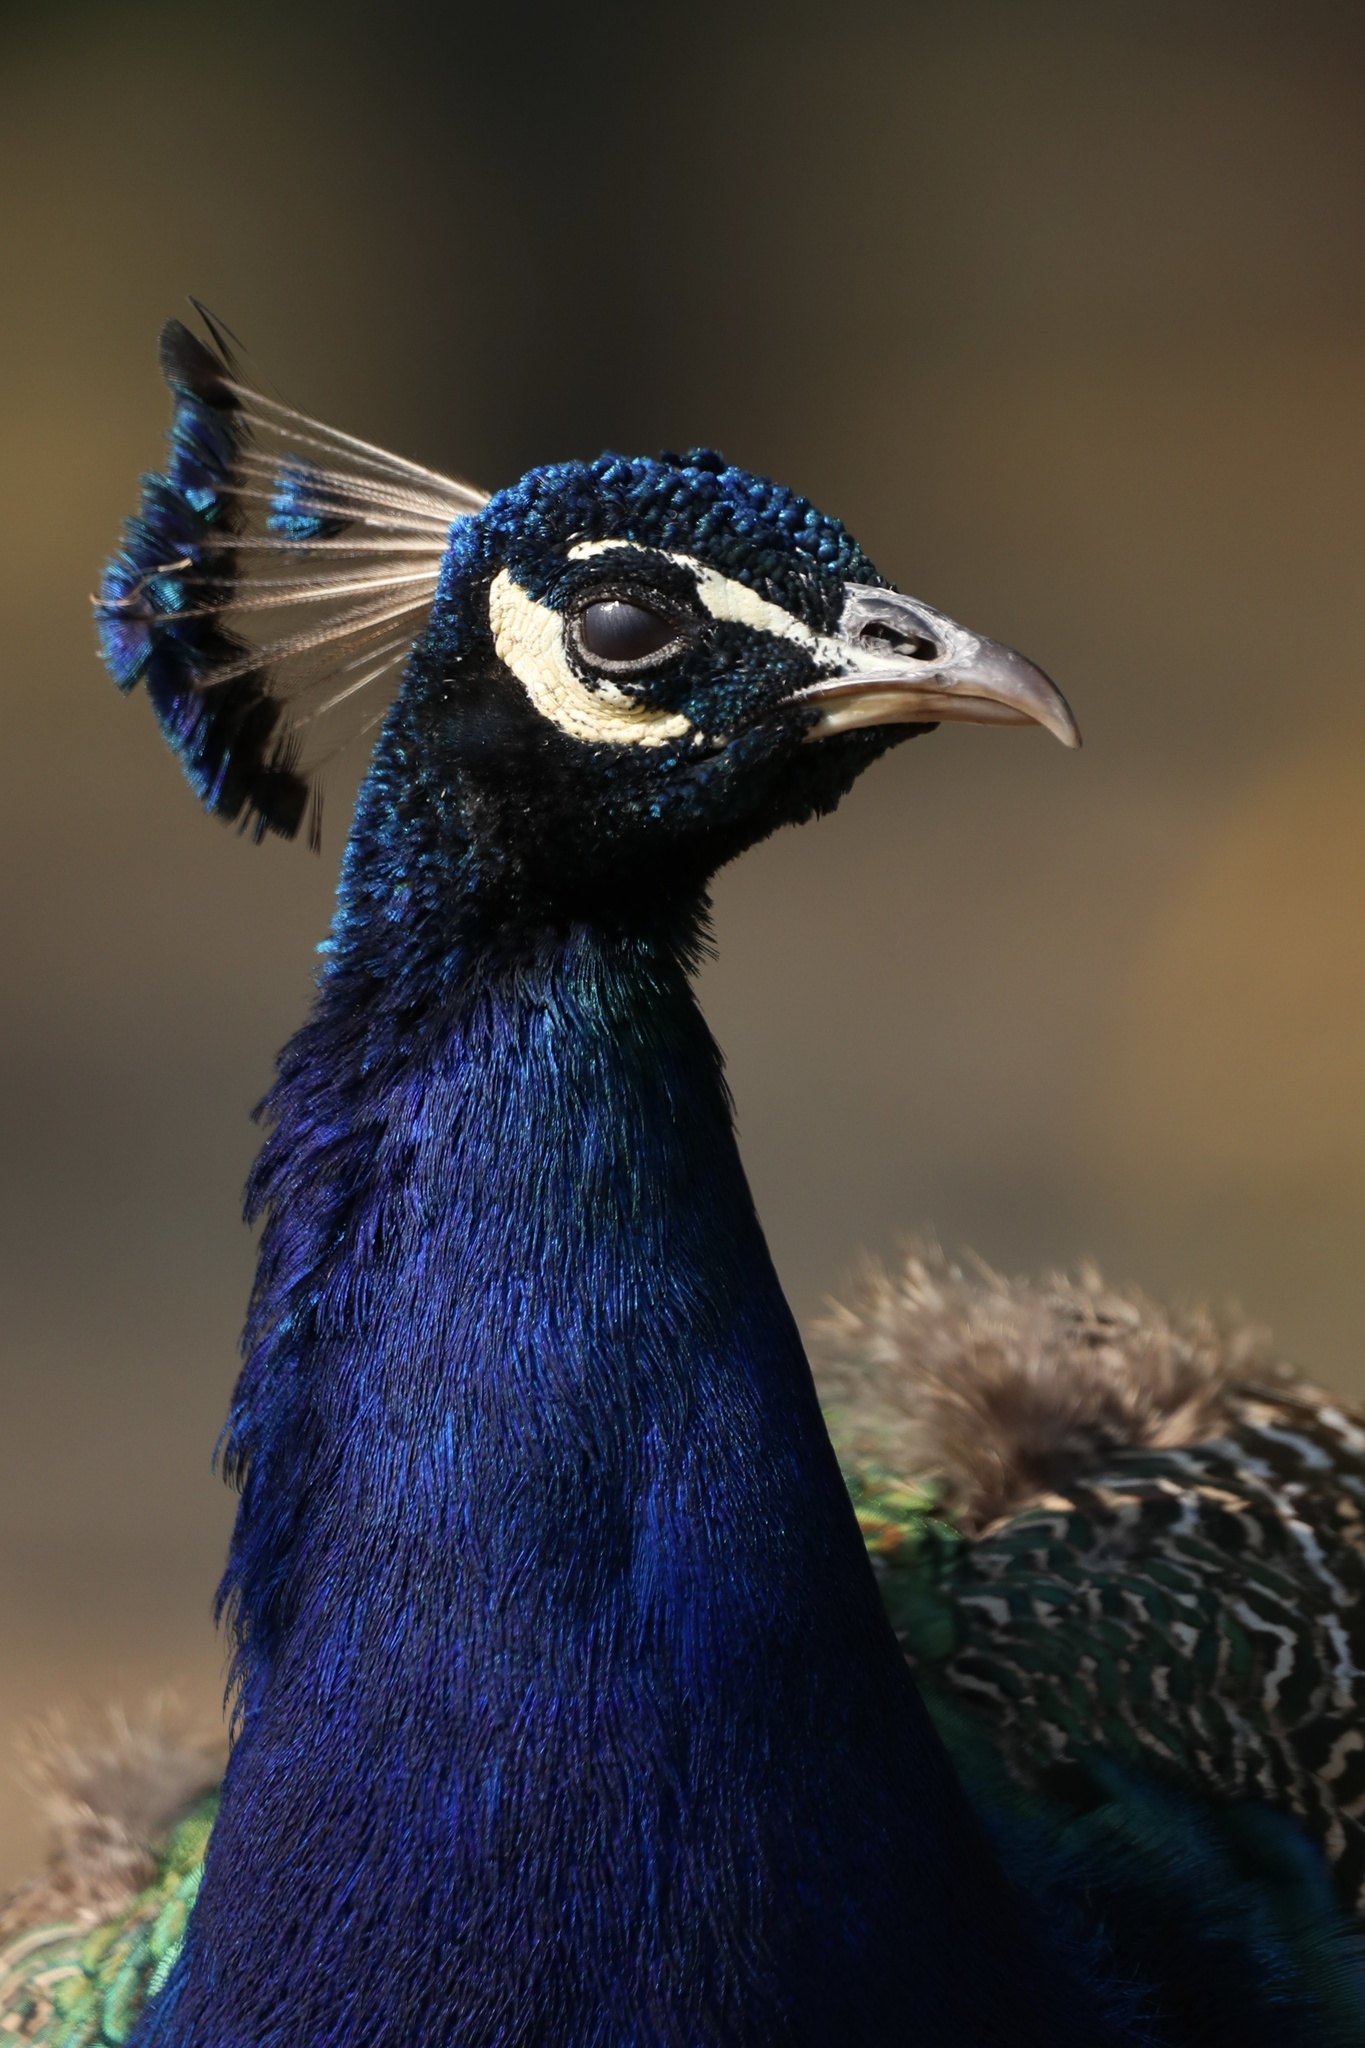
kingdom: Animalia
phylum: Chordata
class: Aves
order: Galliformes
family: Phasianidae
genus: Pavo
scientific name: Pavo cristatus
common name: Indian peafowl
